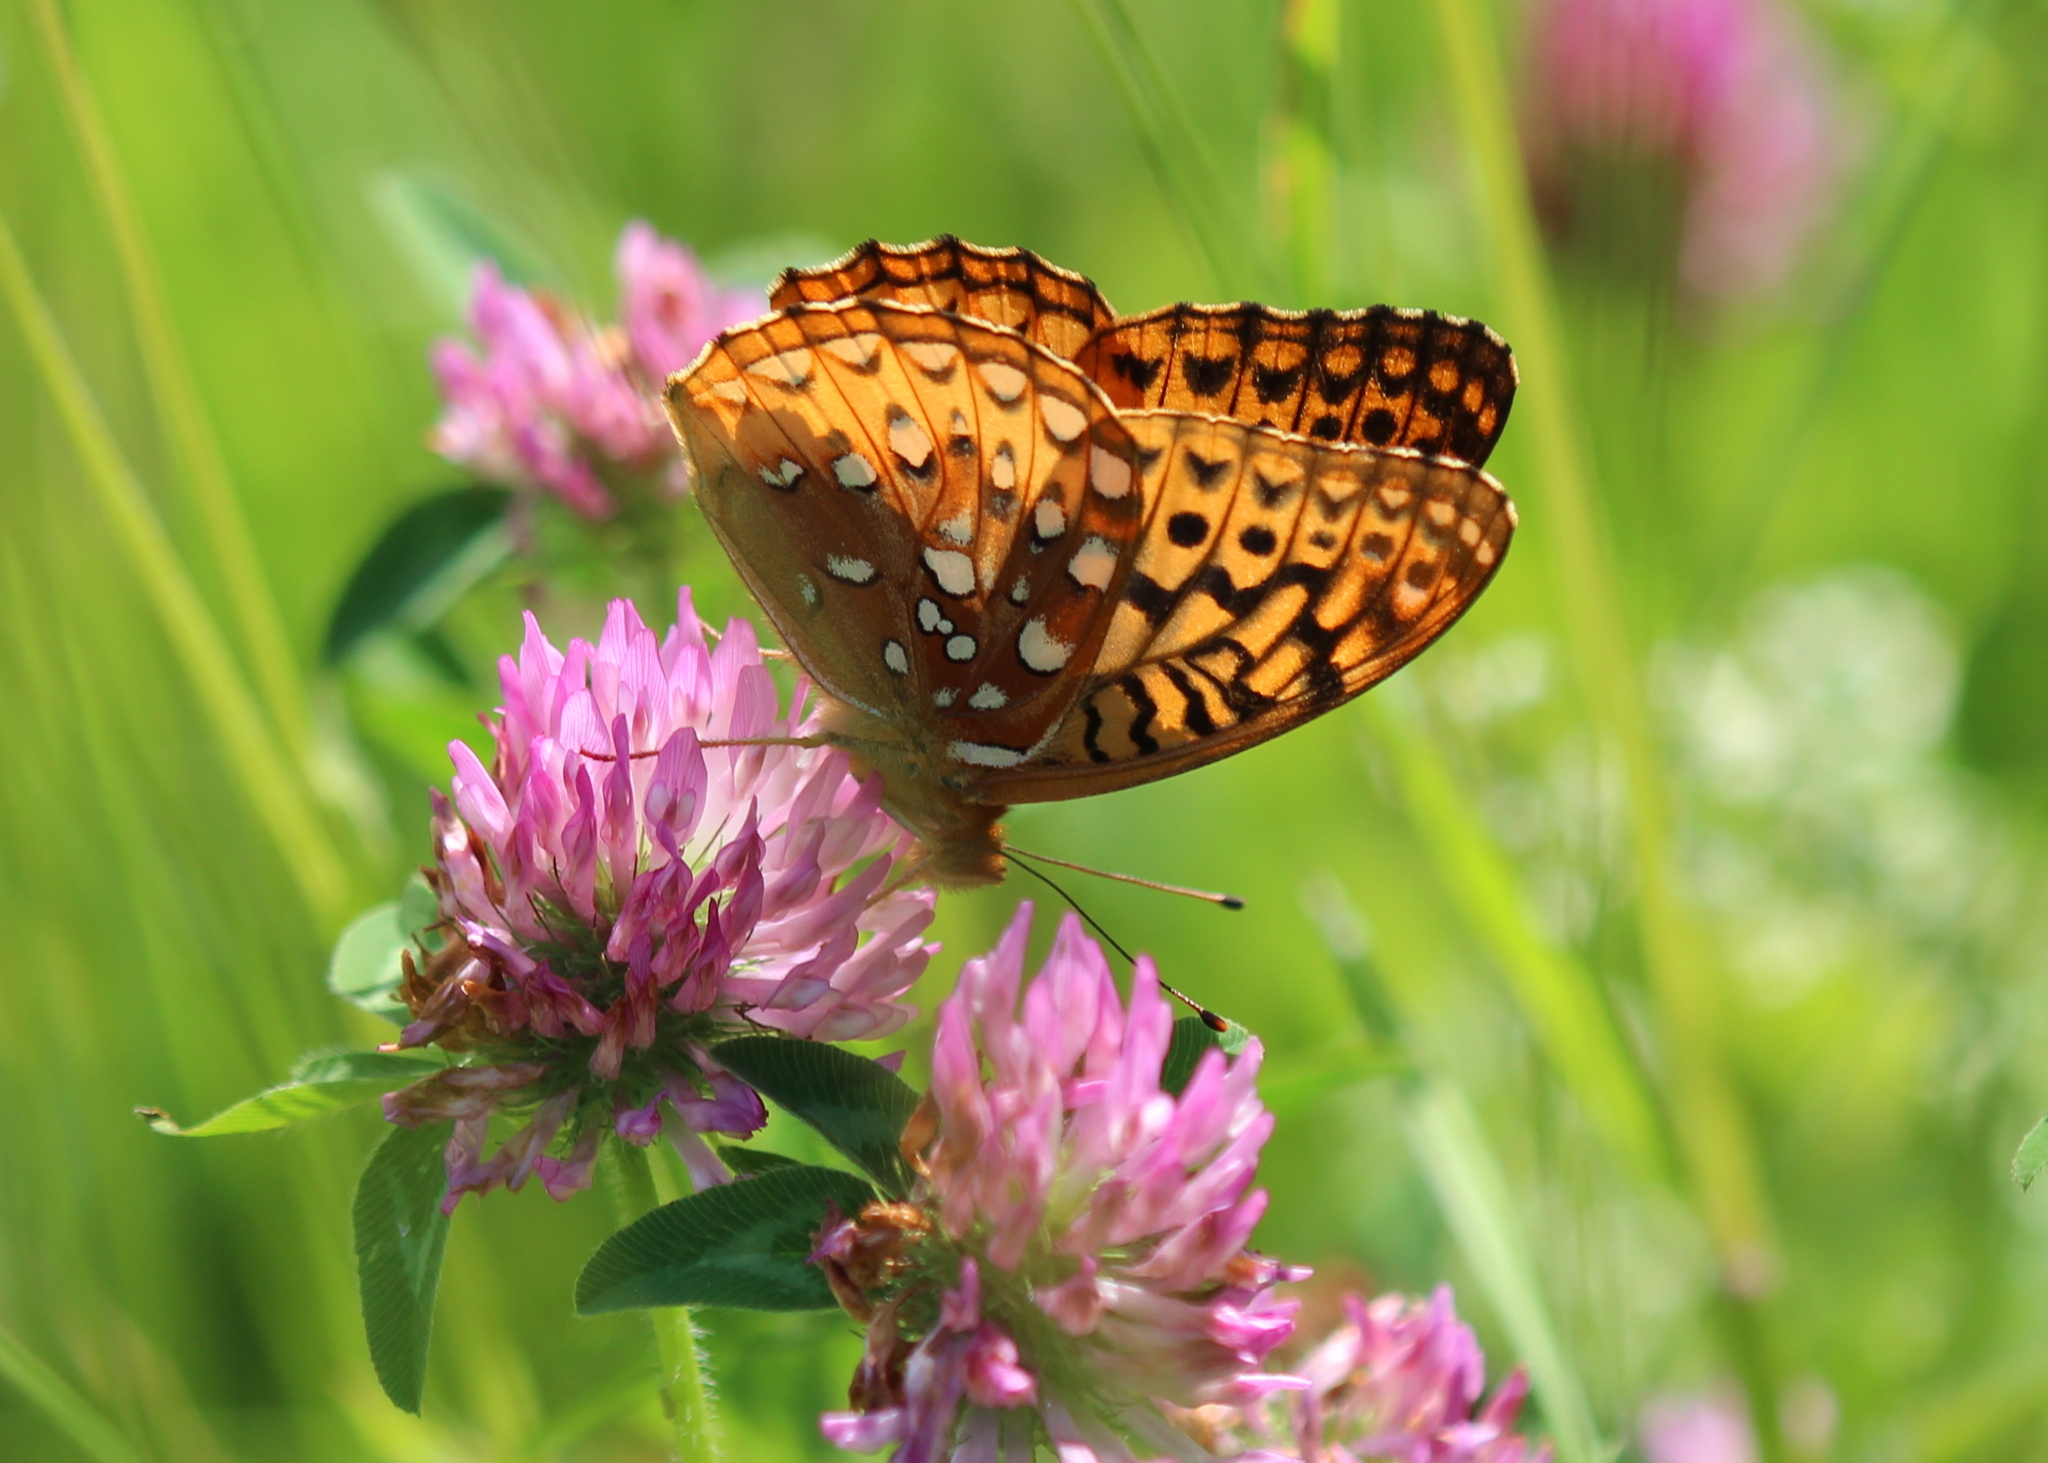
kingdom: Animalia
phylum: Arthropoda
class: Insecta
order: Lepidoptera
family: Nymphalidae
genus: Speyeria
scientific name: Speyeria cybele
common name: Great spangled fritillary
